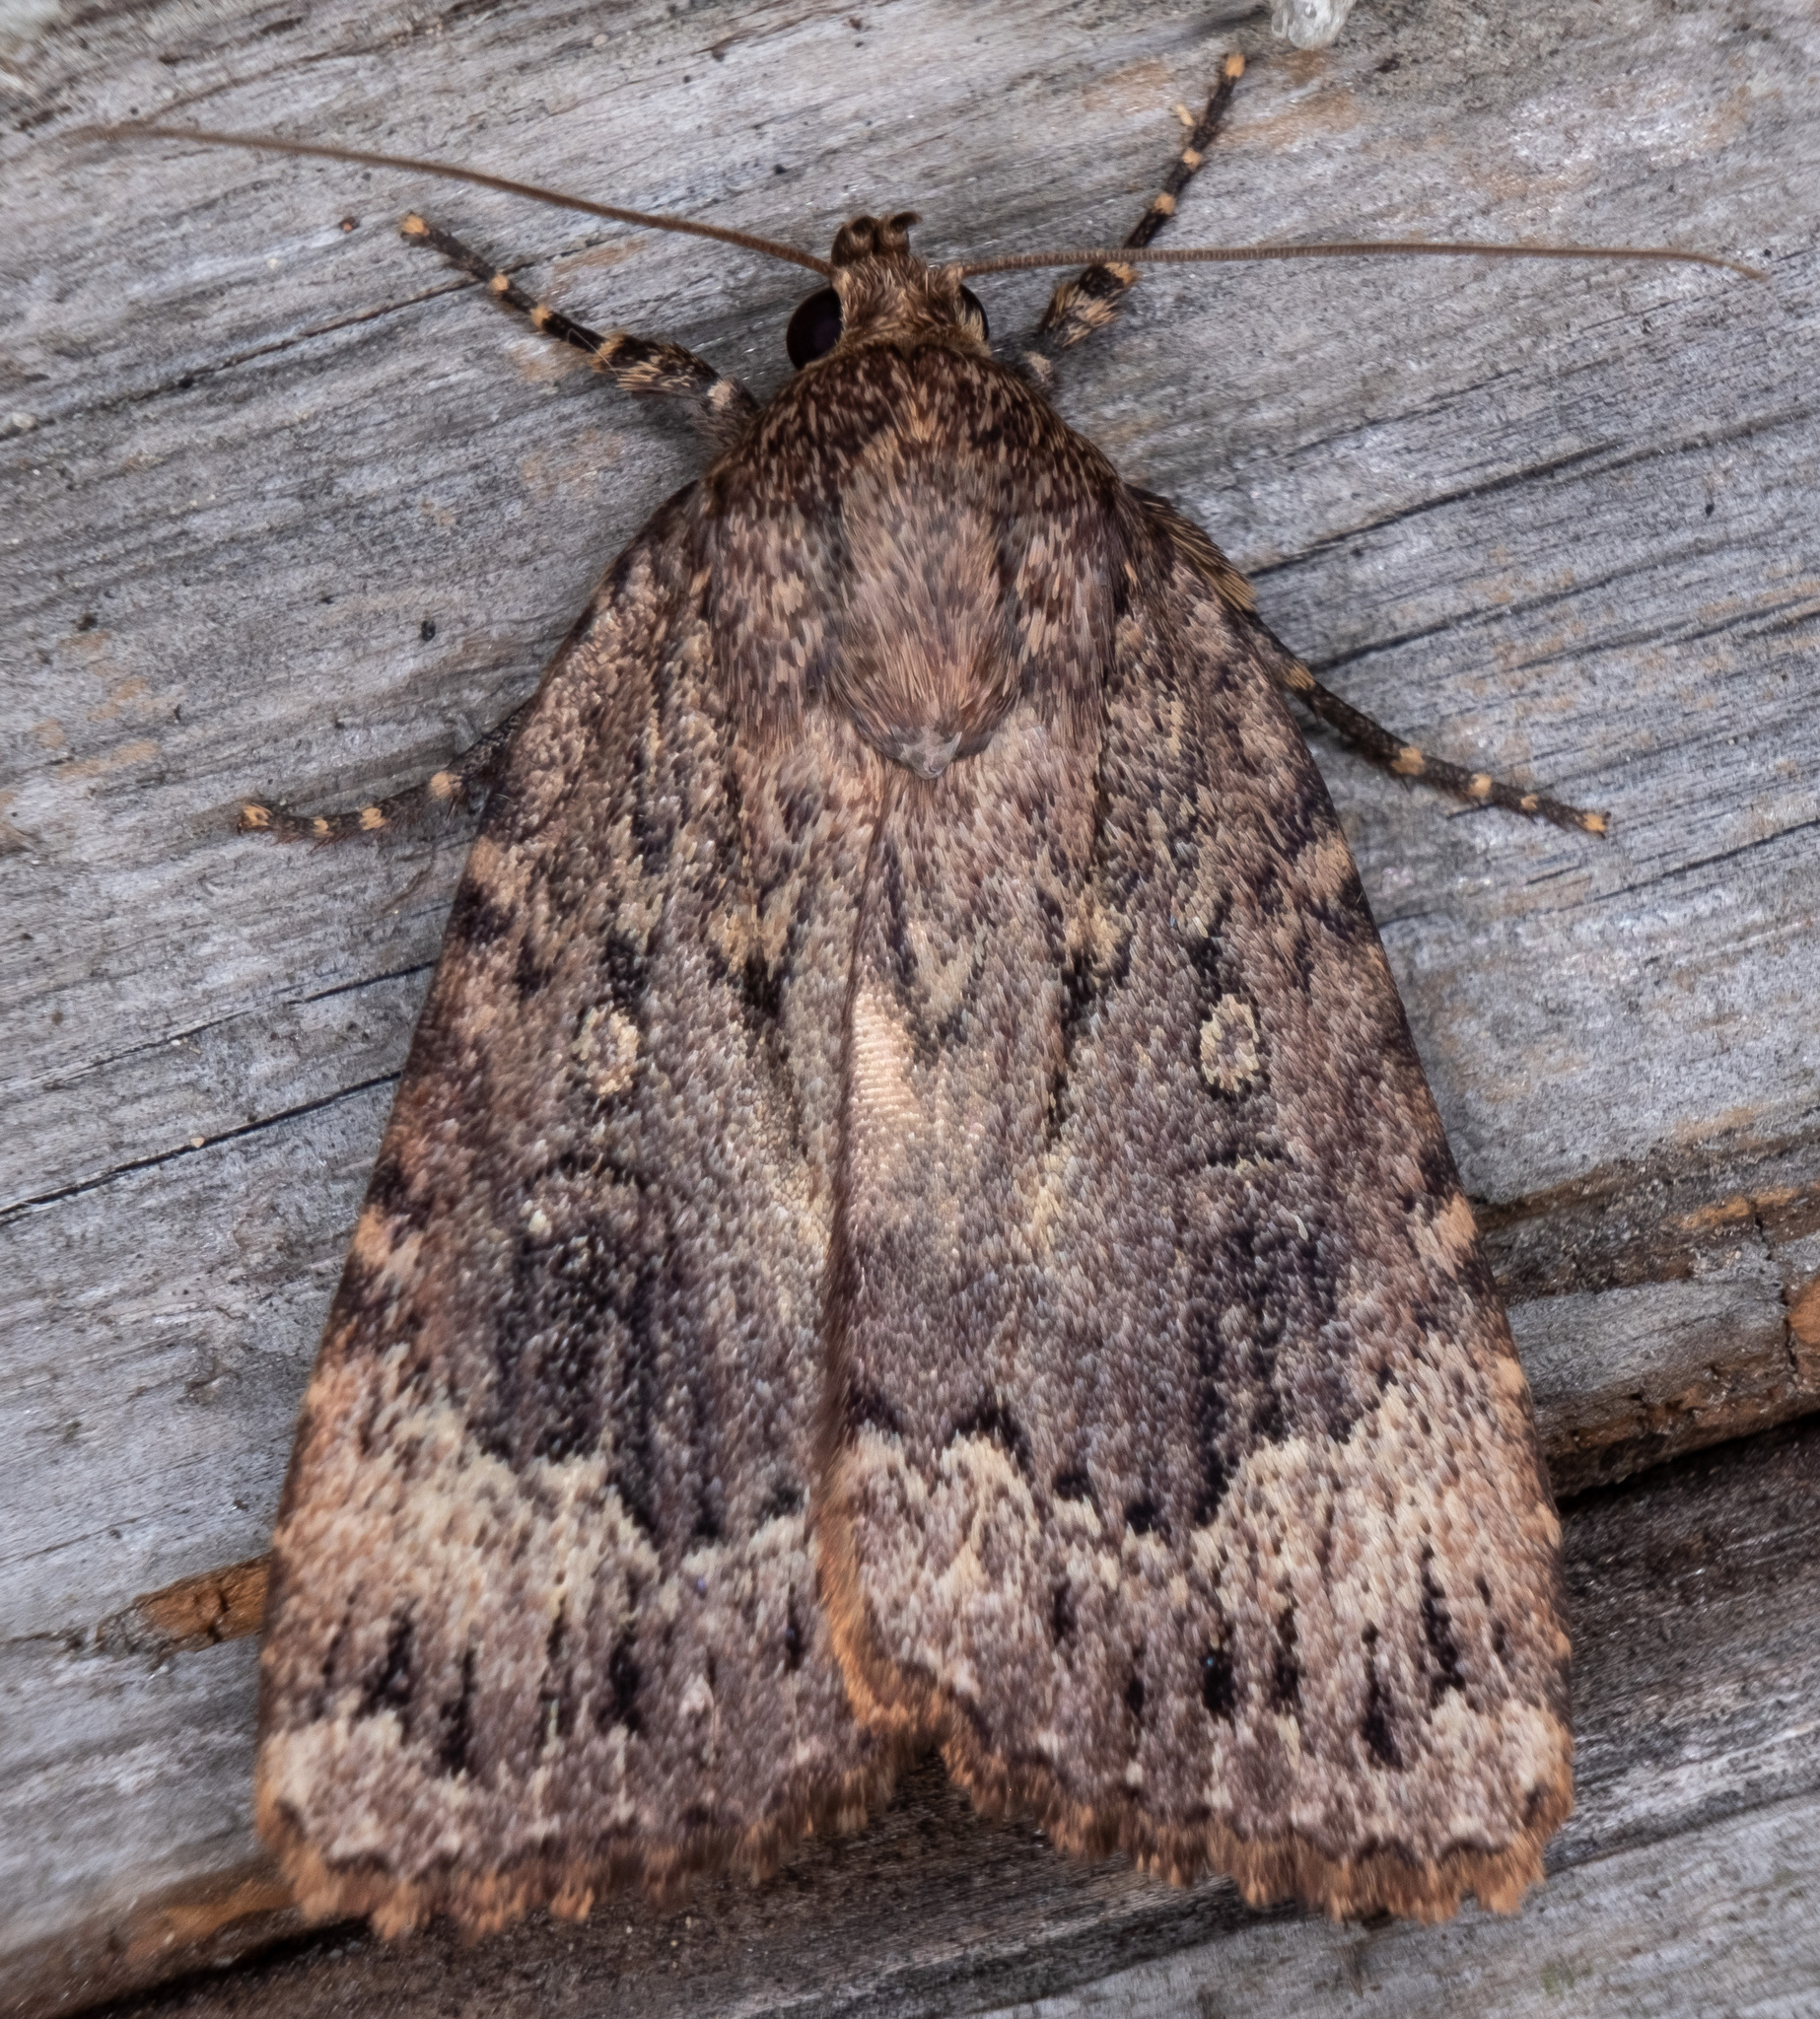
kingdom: Animalia
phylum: Arthropoda
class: Insecta
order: Lepidoptera
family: Noctuidae
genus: Amphipyra
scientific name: Amphipyra pyramidoides
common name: American copper underwing
